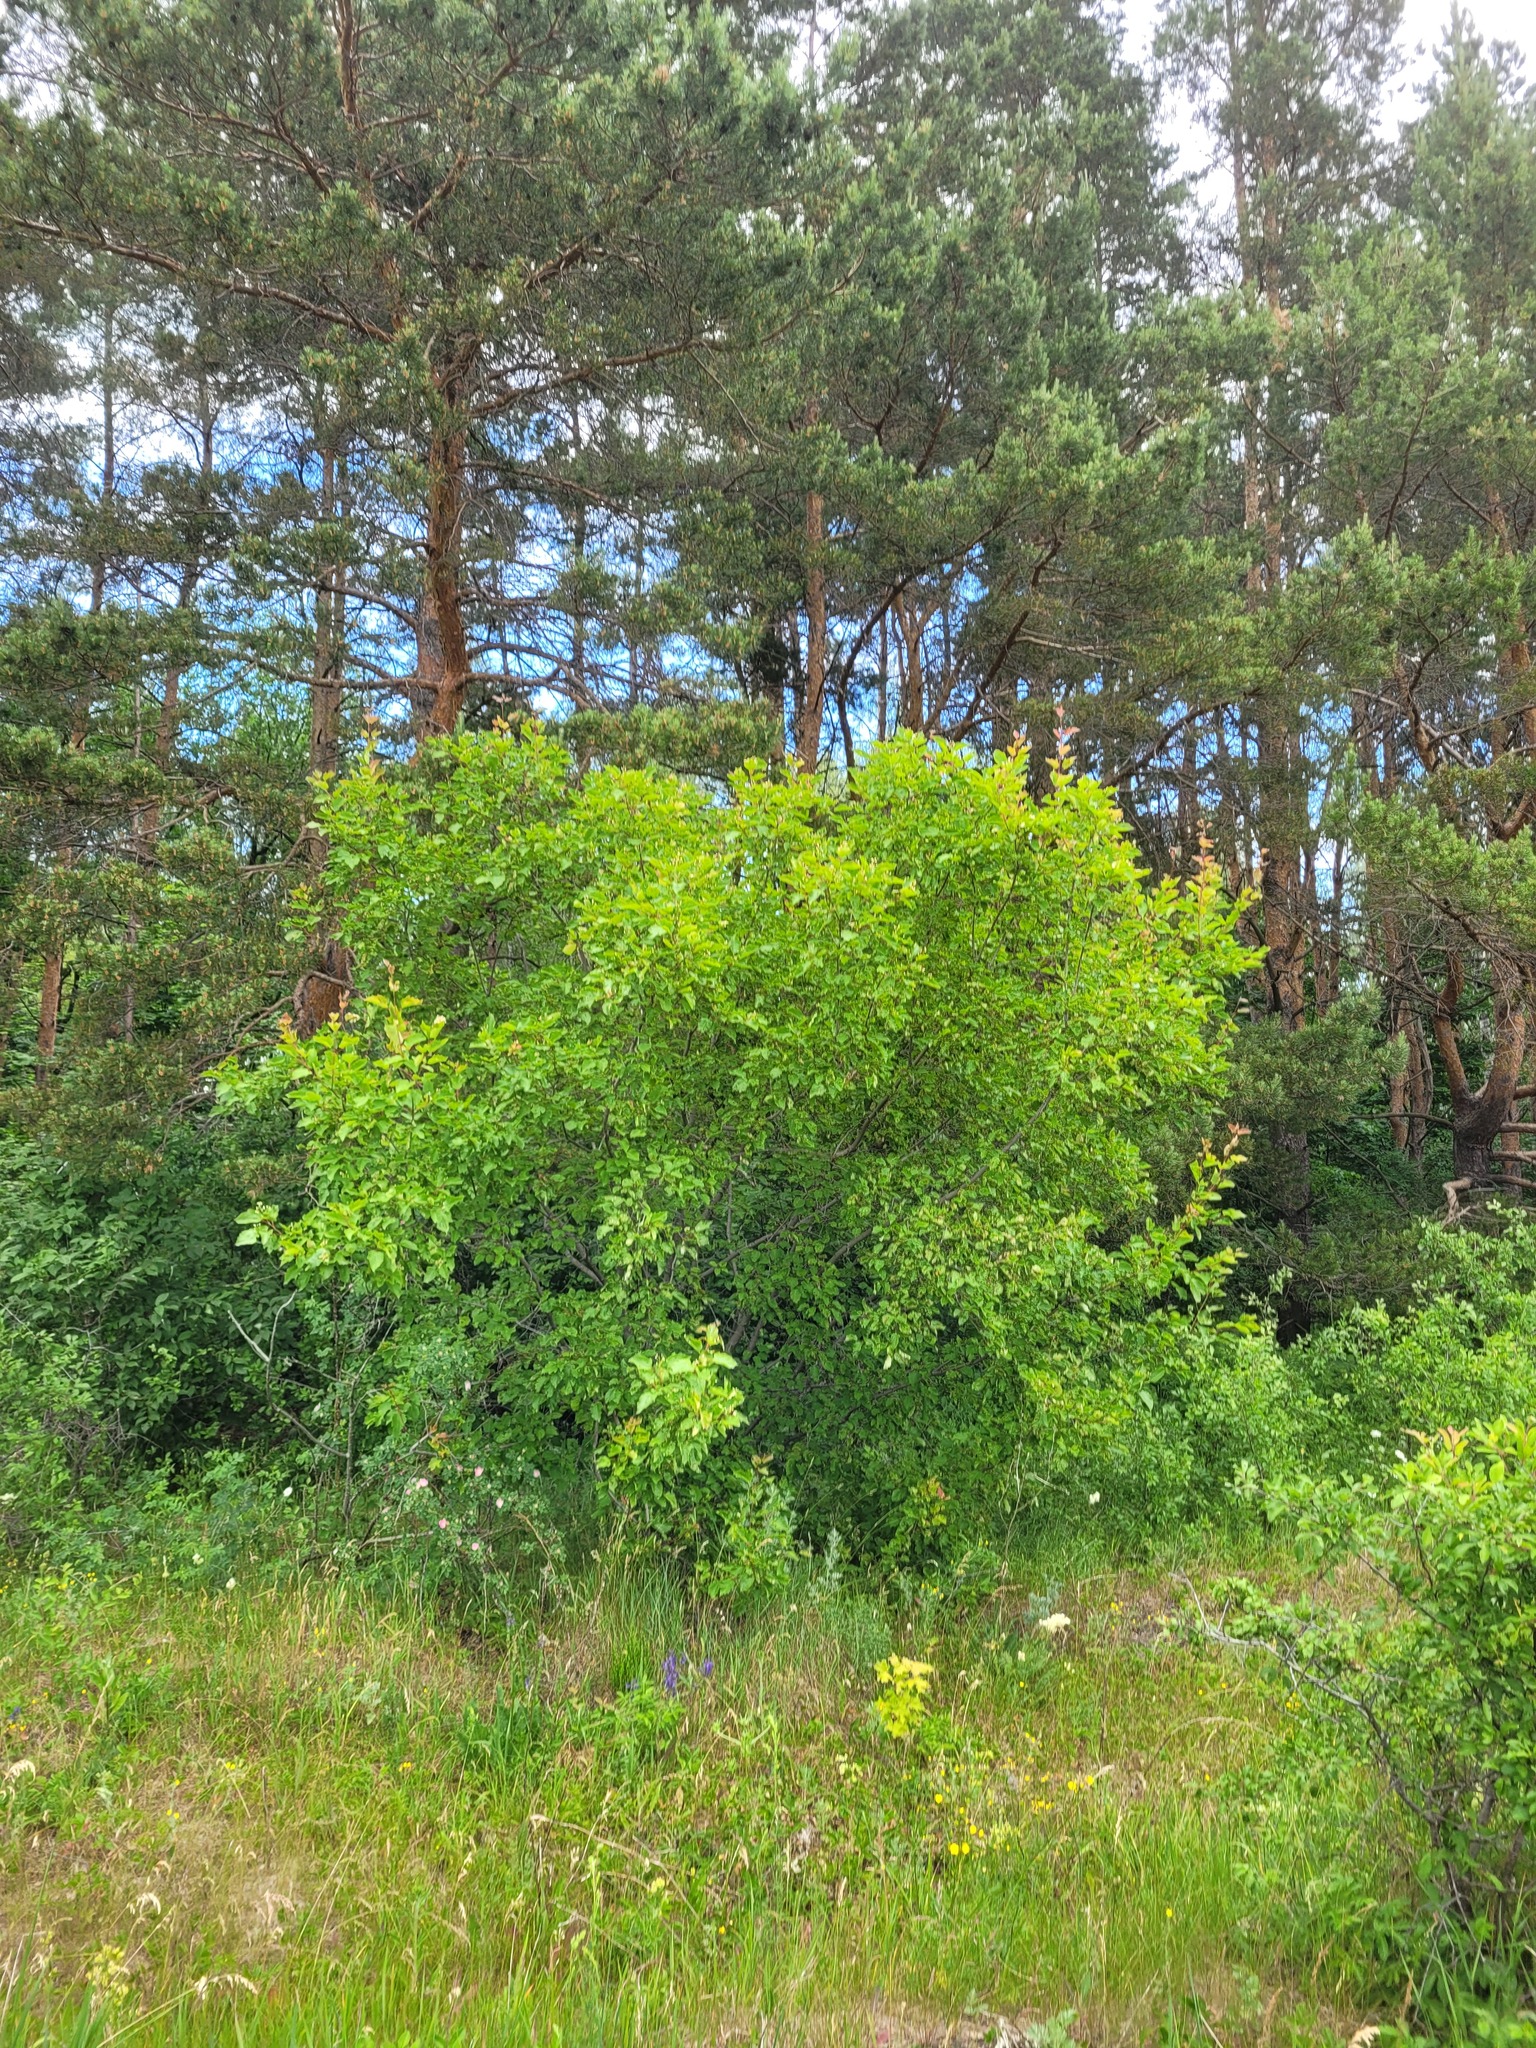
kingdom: Plantae
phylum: Tracheophyta
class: Magnoliopsida
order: Sapindales
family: Sapindaceae
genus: Acer
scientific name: Acer tataricum
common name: Tartar maple
